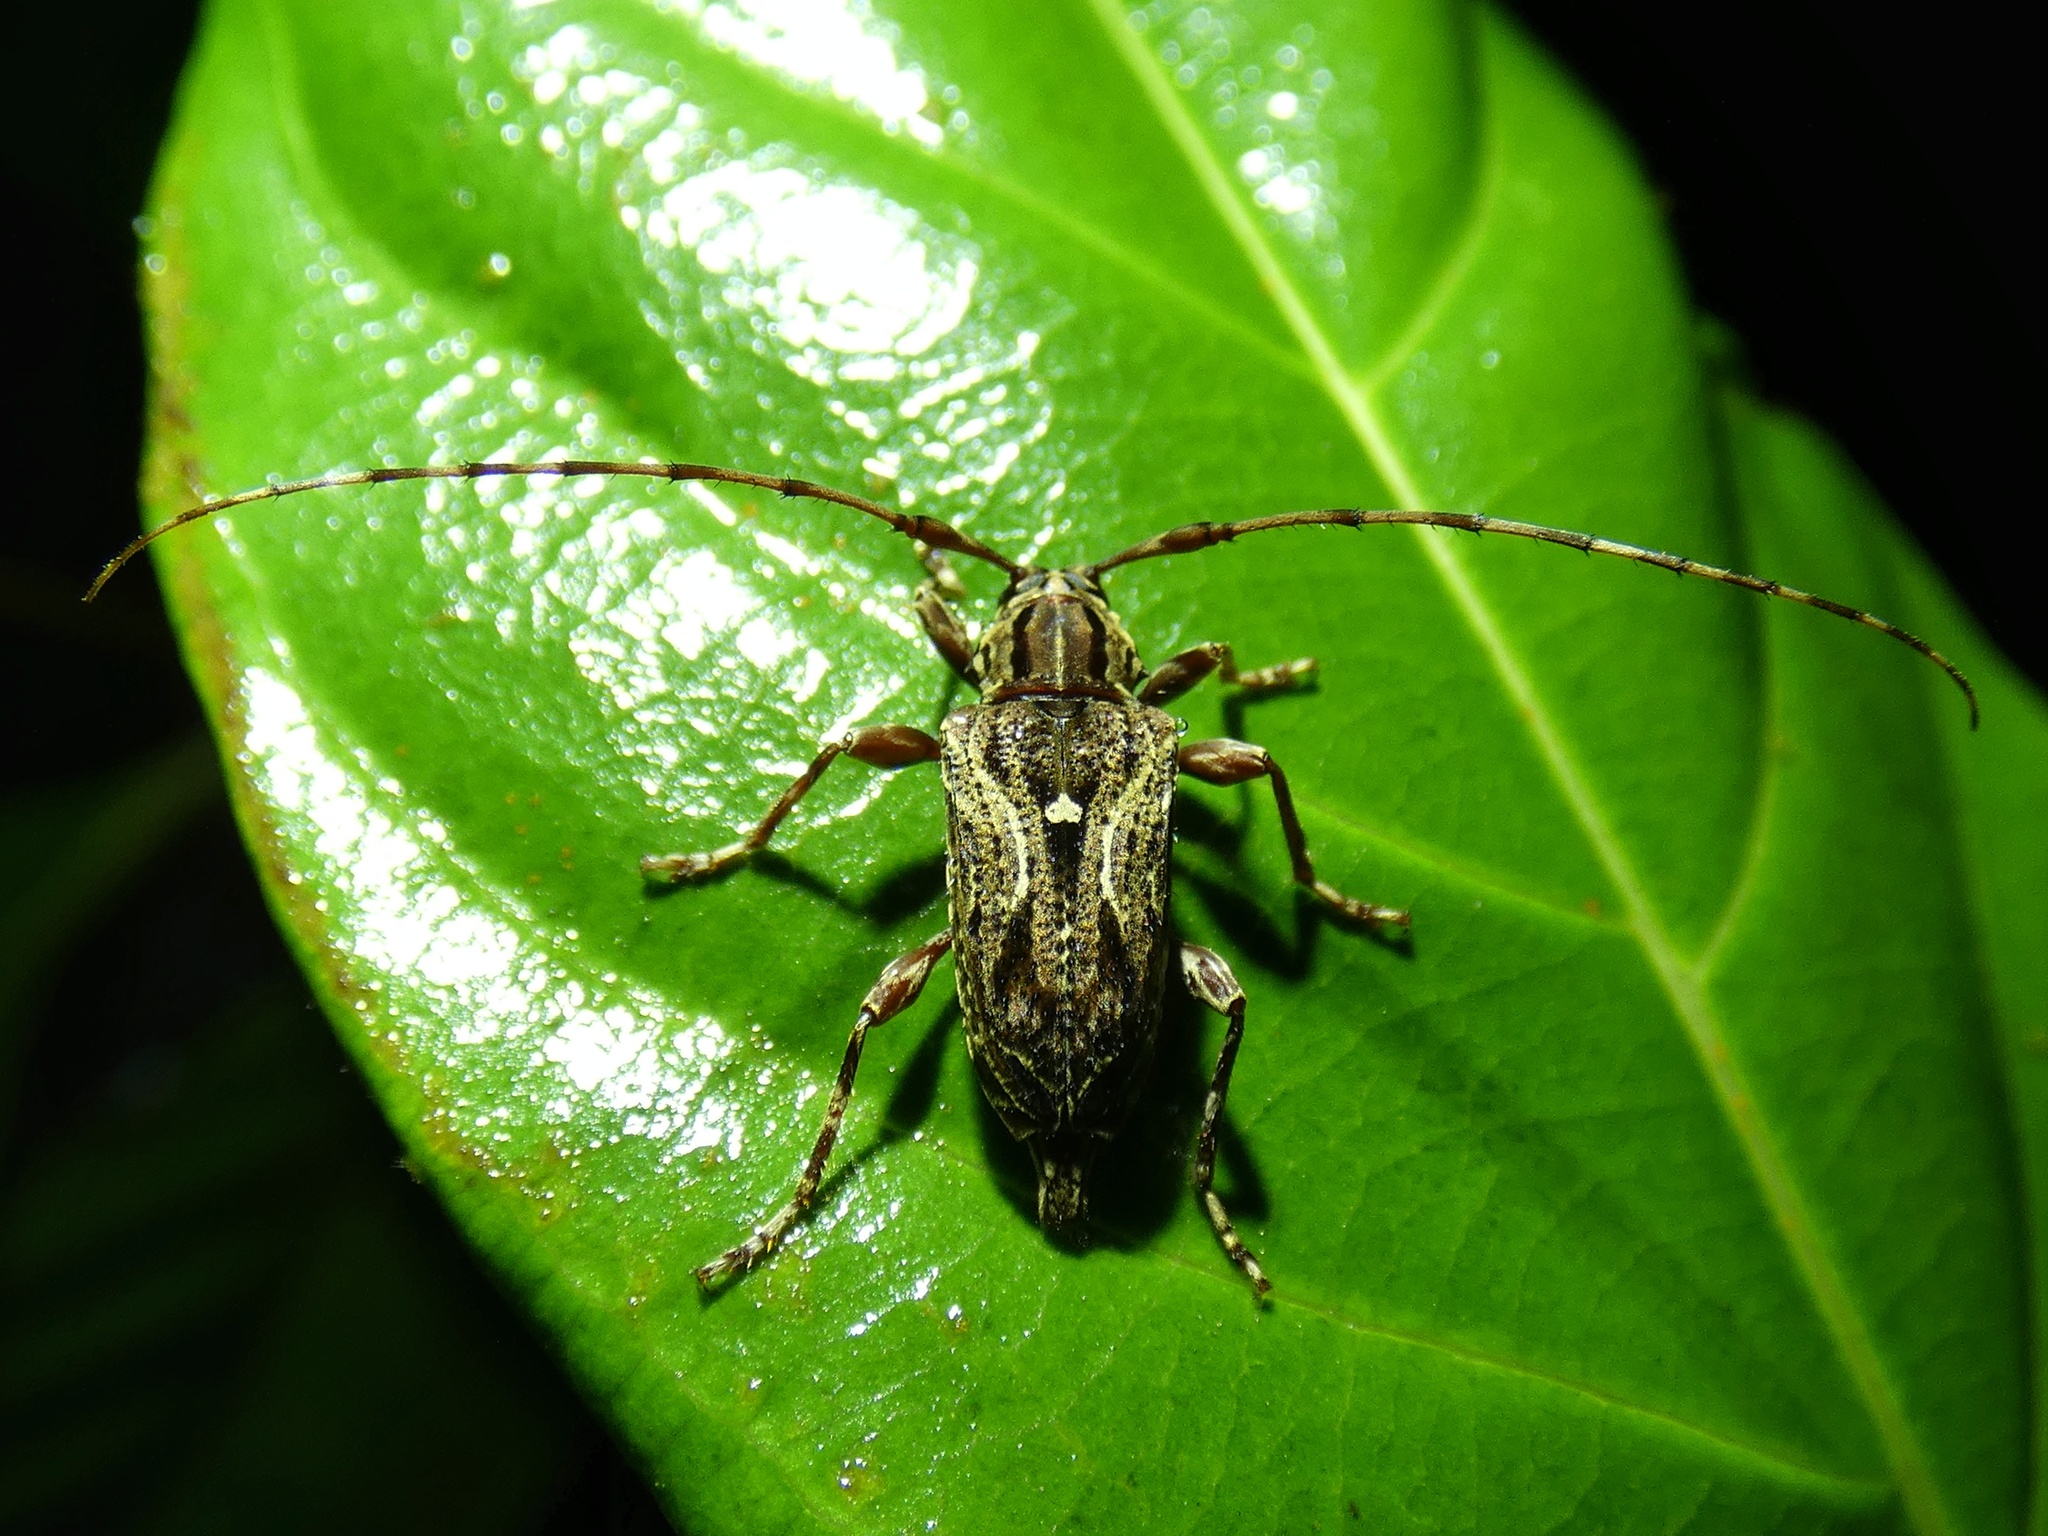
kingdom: Animalia
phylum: Arthropoda
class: Insecta
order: Coleoptera
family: Cerambycidae
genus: Carphina
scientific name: Carphina arcifera
